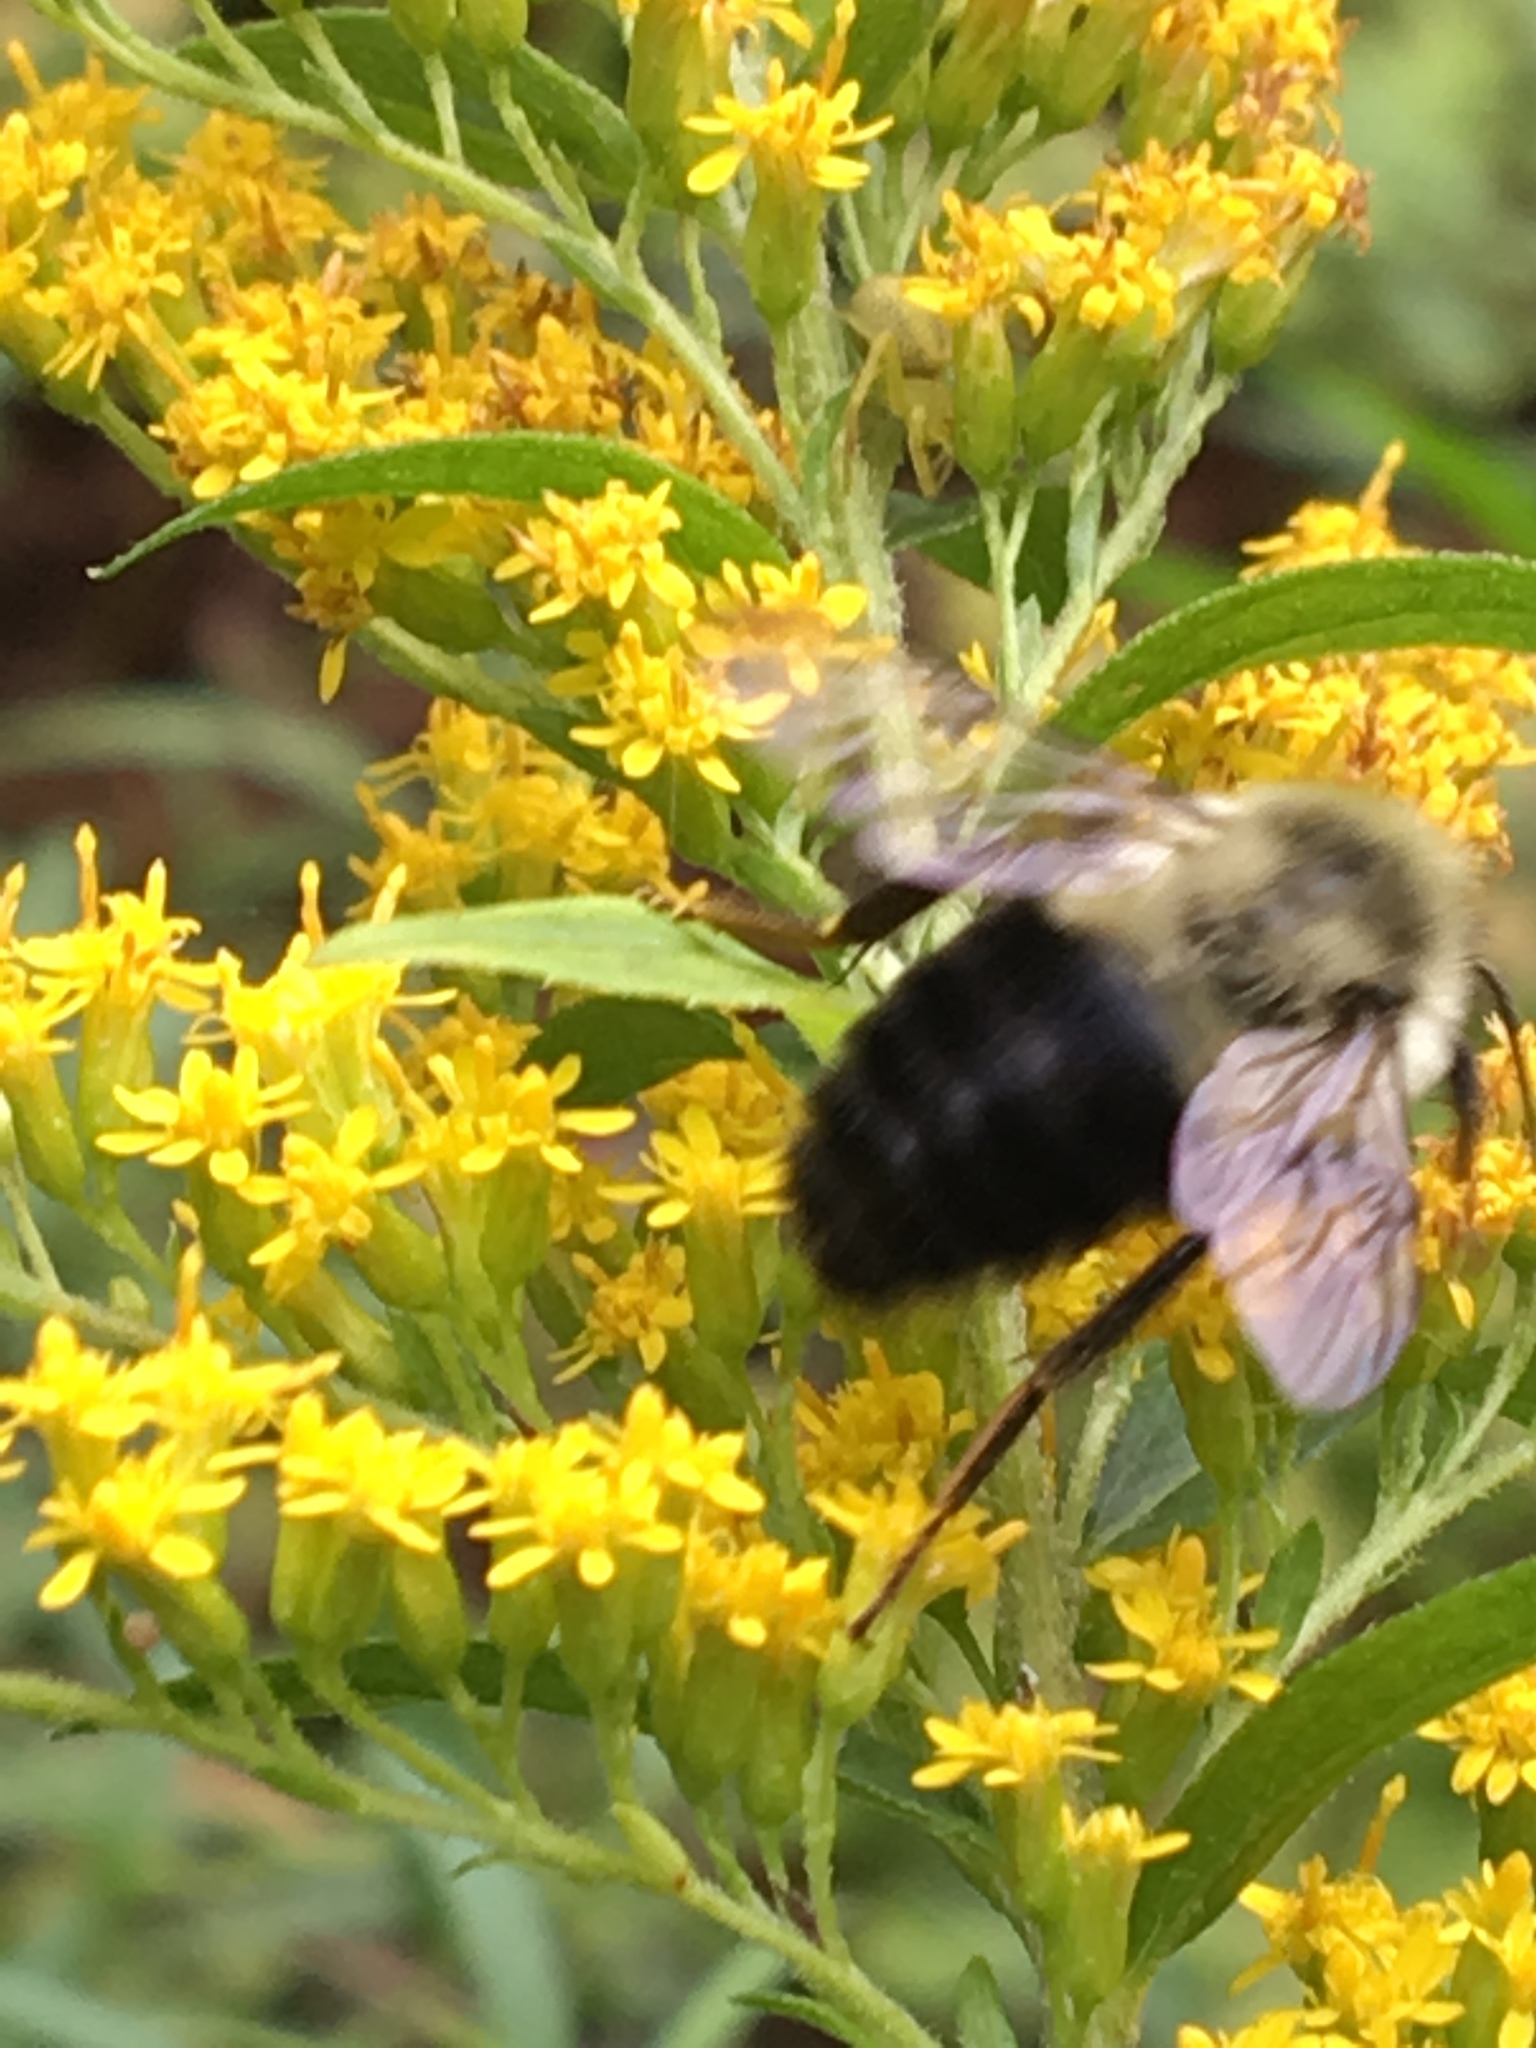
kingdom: Animalia
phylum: Arthropoda
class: Insecta
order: Hymenoptera
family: Apidae
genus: Bombus
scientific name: Bombus impatiens
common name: Common eastern bumble bee
